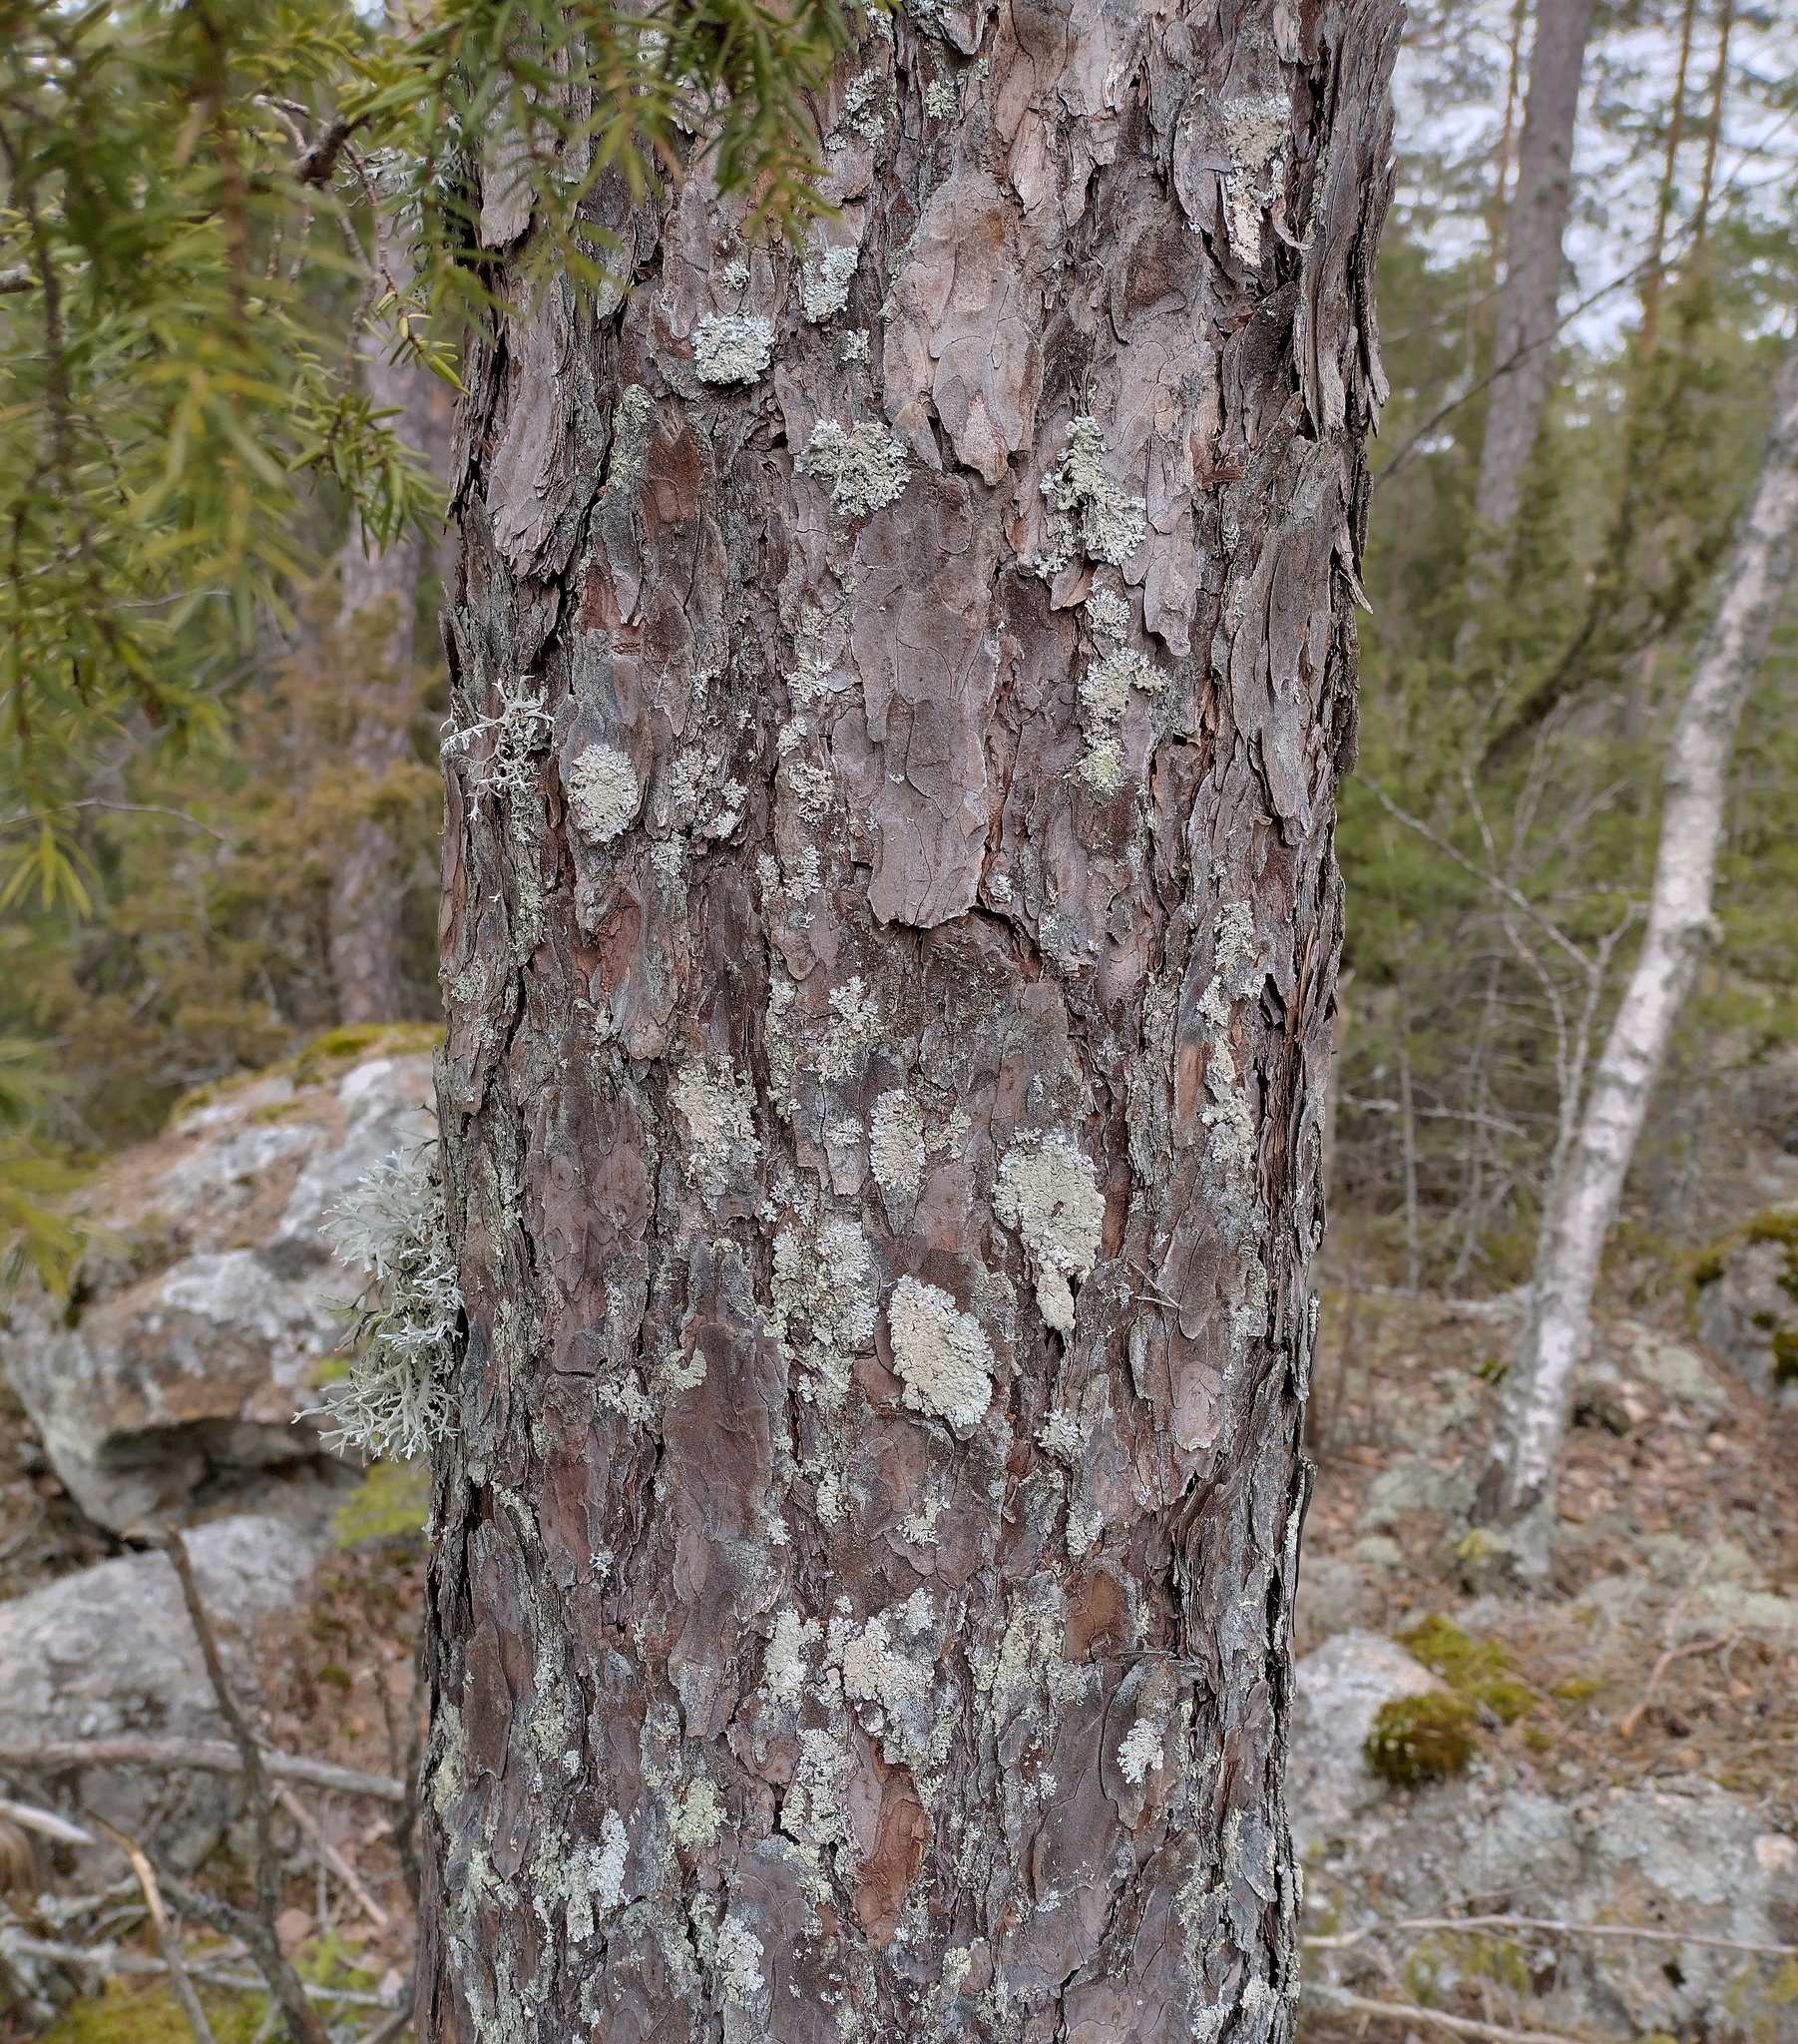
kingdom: Fungi
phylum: Ascomycota
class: Lecanoromycetes
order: Lecanorales
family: Parmeliaceae
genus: Imshaugia
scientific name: Imshaugia aleurites
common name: Salted starburst lichen
